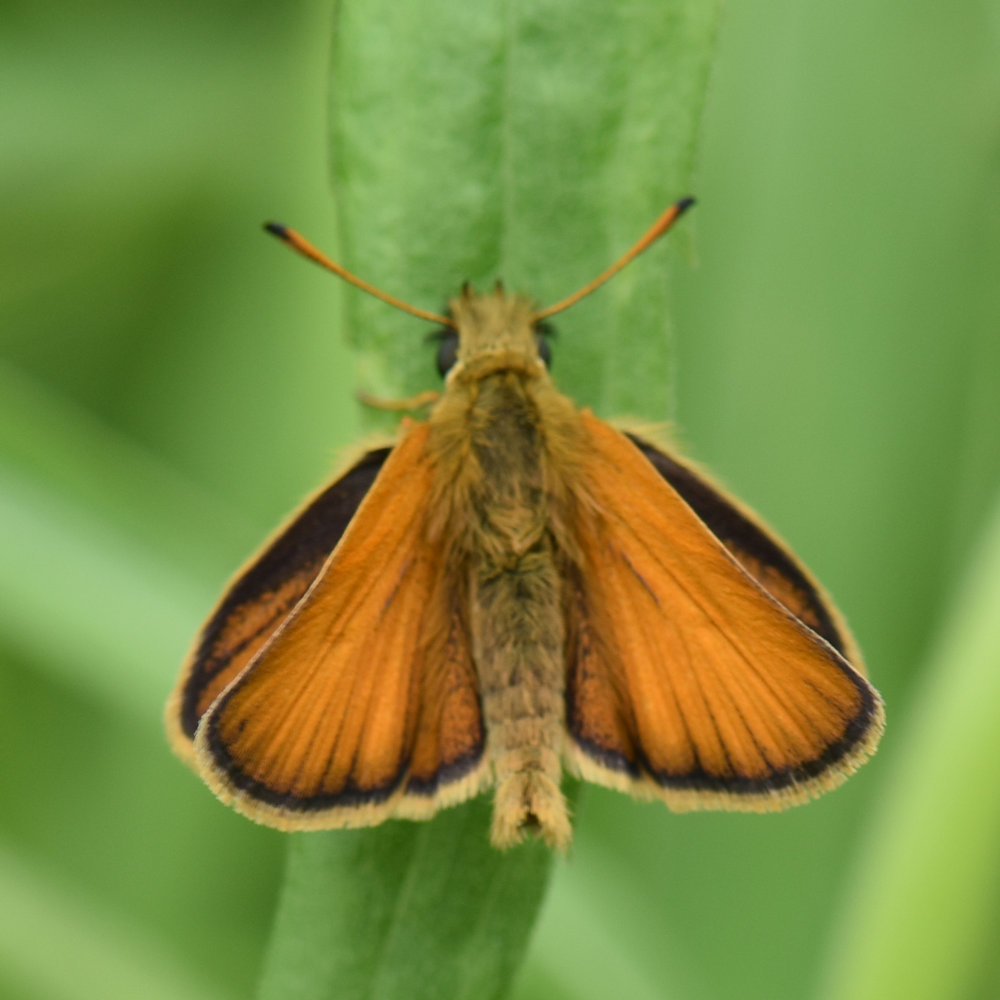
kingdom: Animalia
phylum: Arthropoda
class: Insecta
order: Lepidoptera
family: Hesperiidae
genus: Thymelicus
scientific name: Thymelicus lineola
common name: Essex skipper
